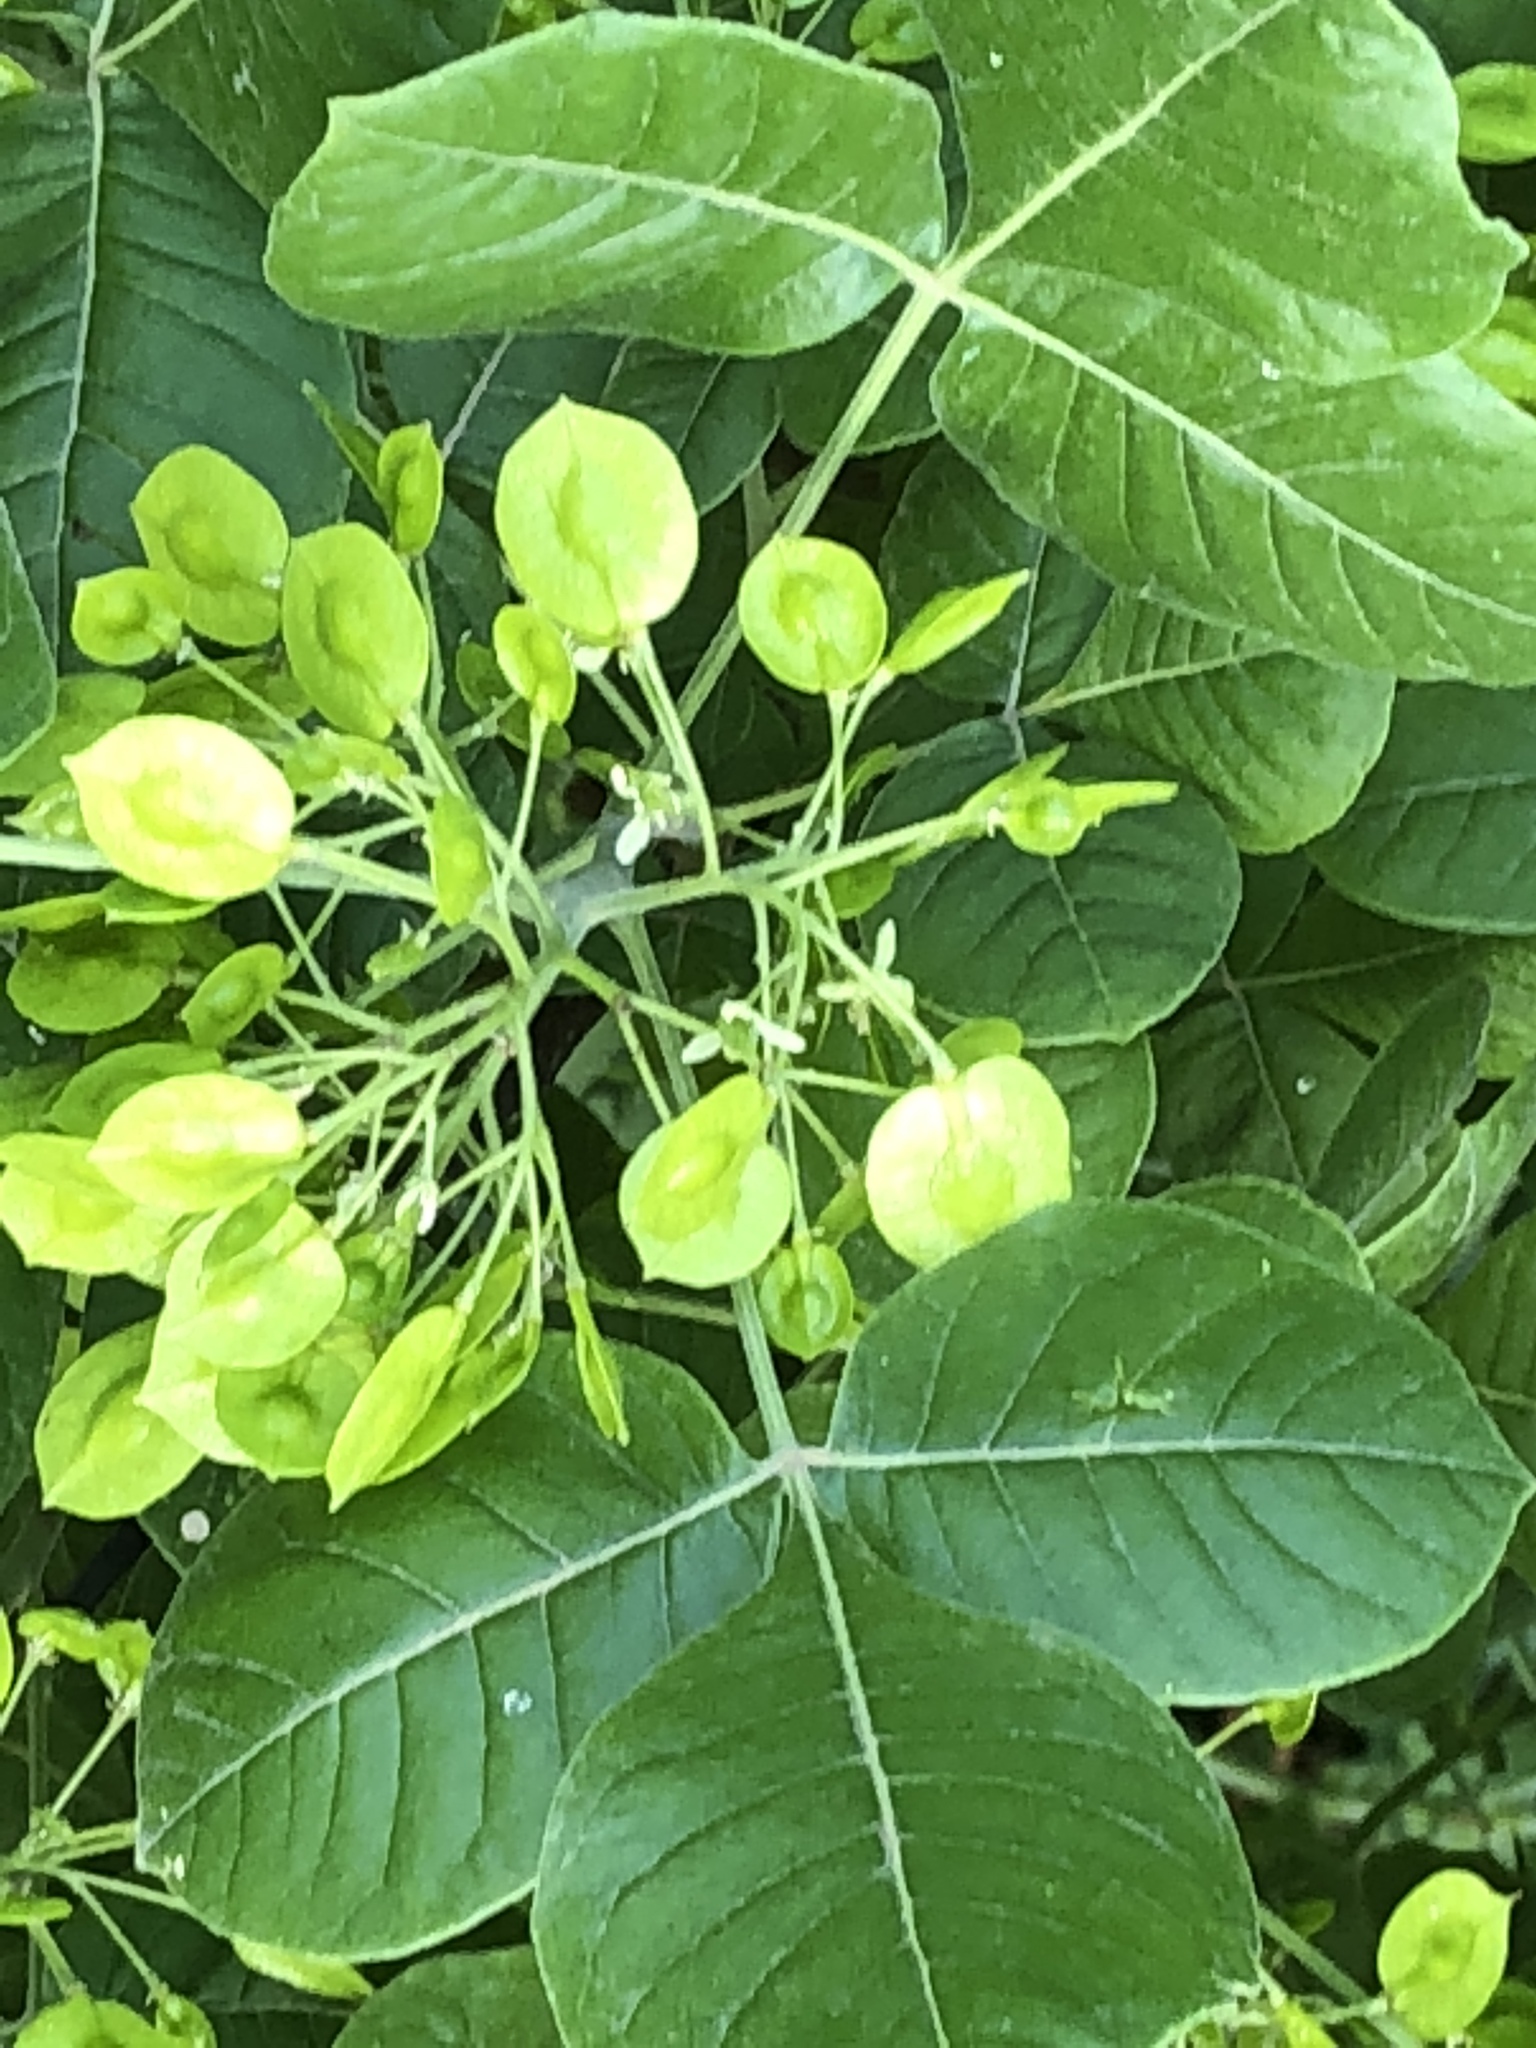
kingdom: Plantae
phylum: Tracheophyta
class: Magnoliopsida
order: Sapindales
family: Rutaceae
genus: Ptelea
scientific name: Ptelea trifoliata
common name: Common hop-tree
